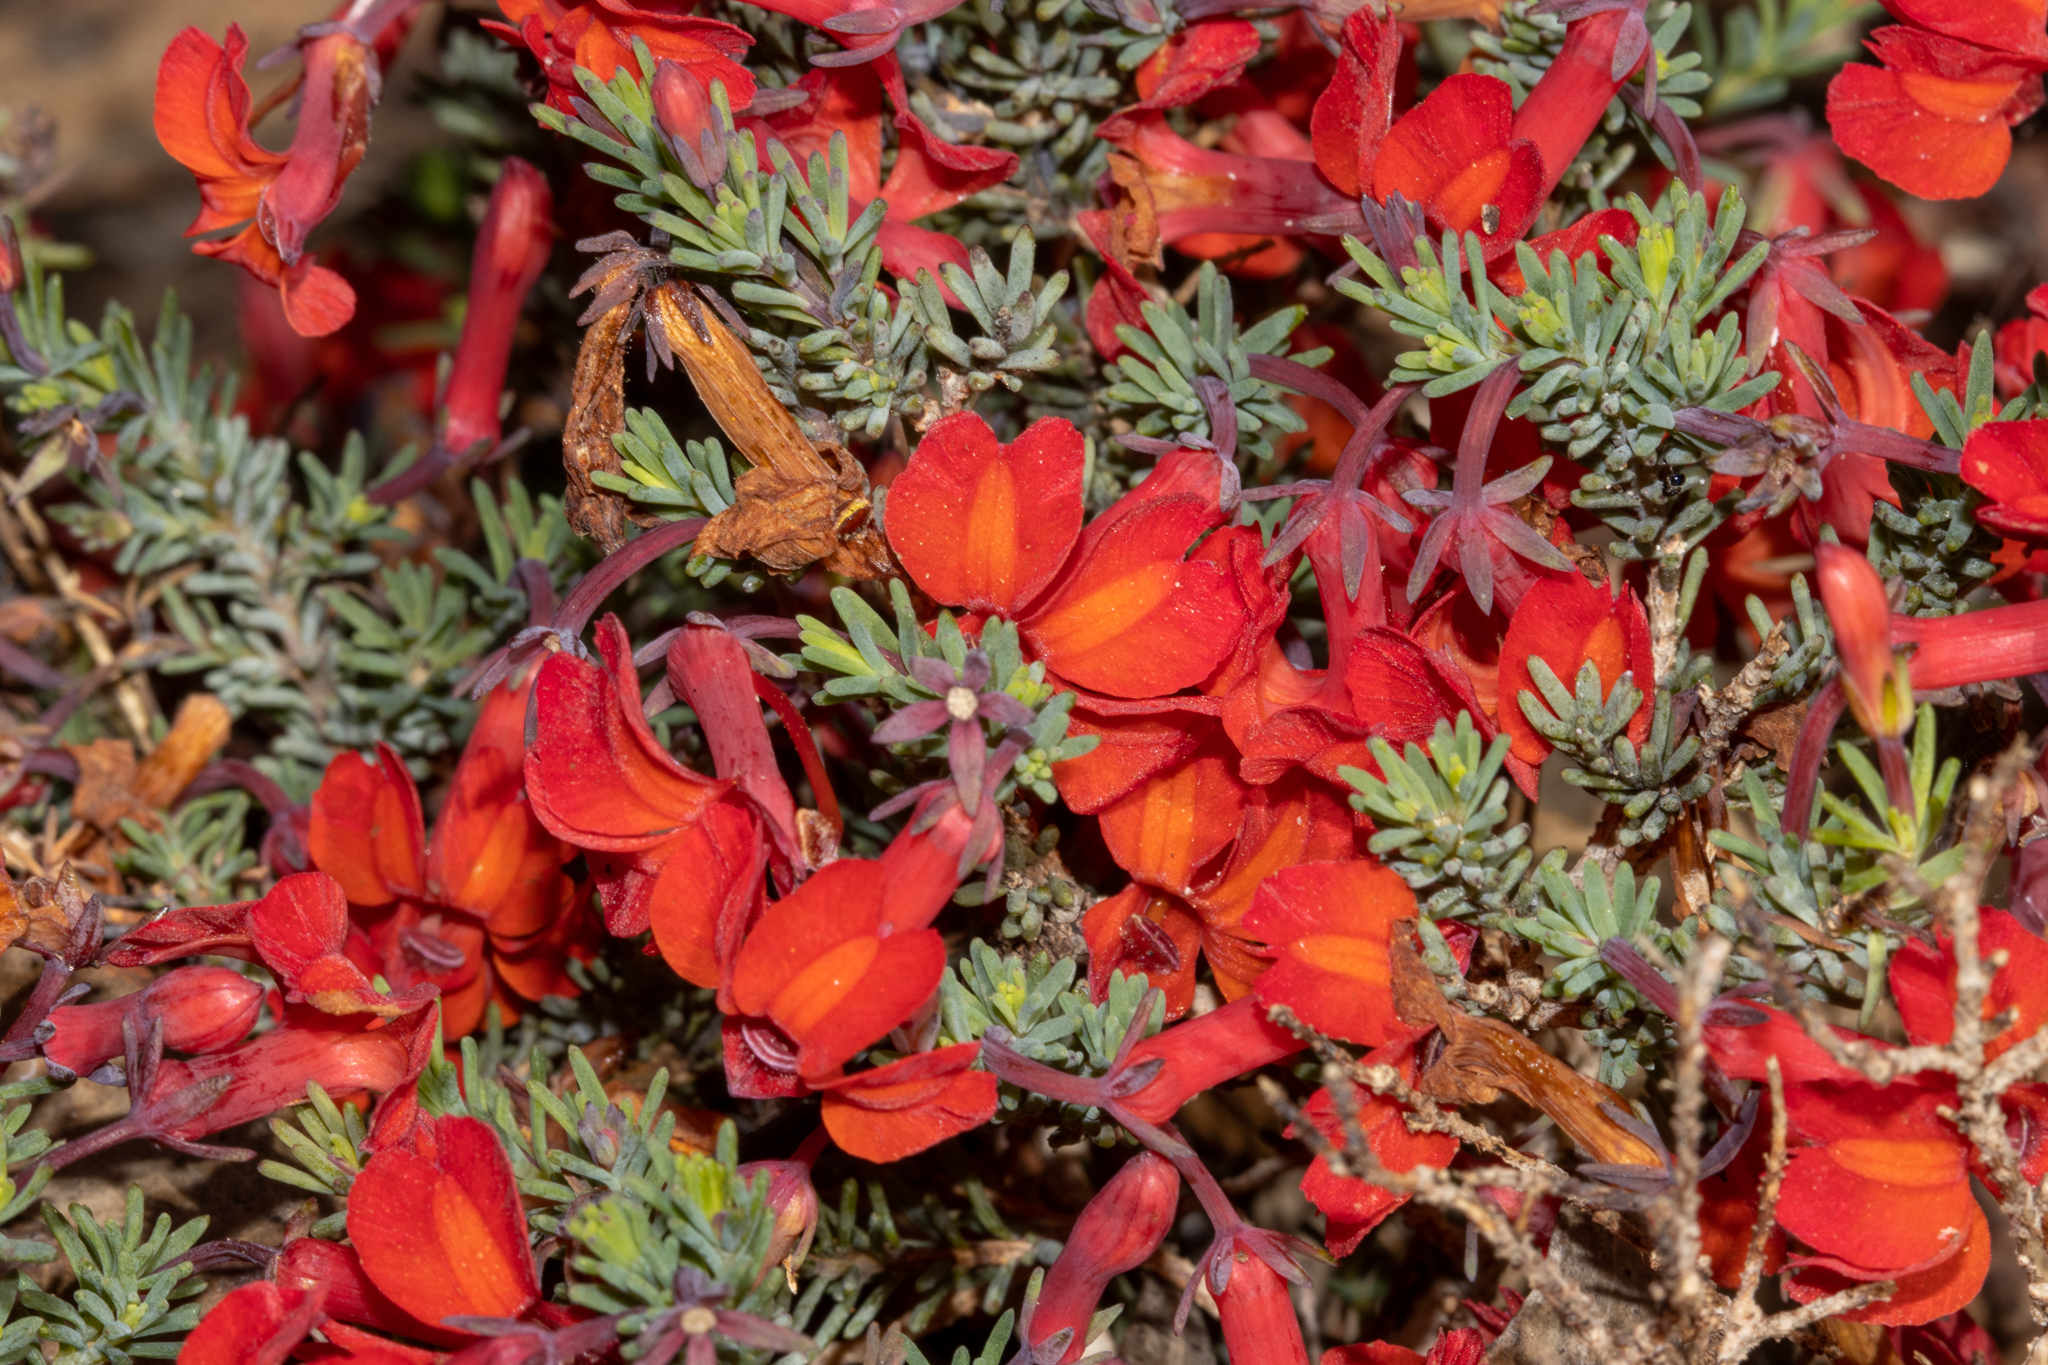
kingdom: Plantae
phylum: Tracheophyta
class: Magnoliopsida
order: Asterales
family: Goodeniaceae
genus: Lechenaultia
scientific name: Lechenaultia formosa
